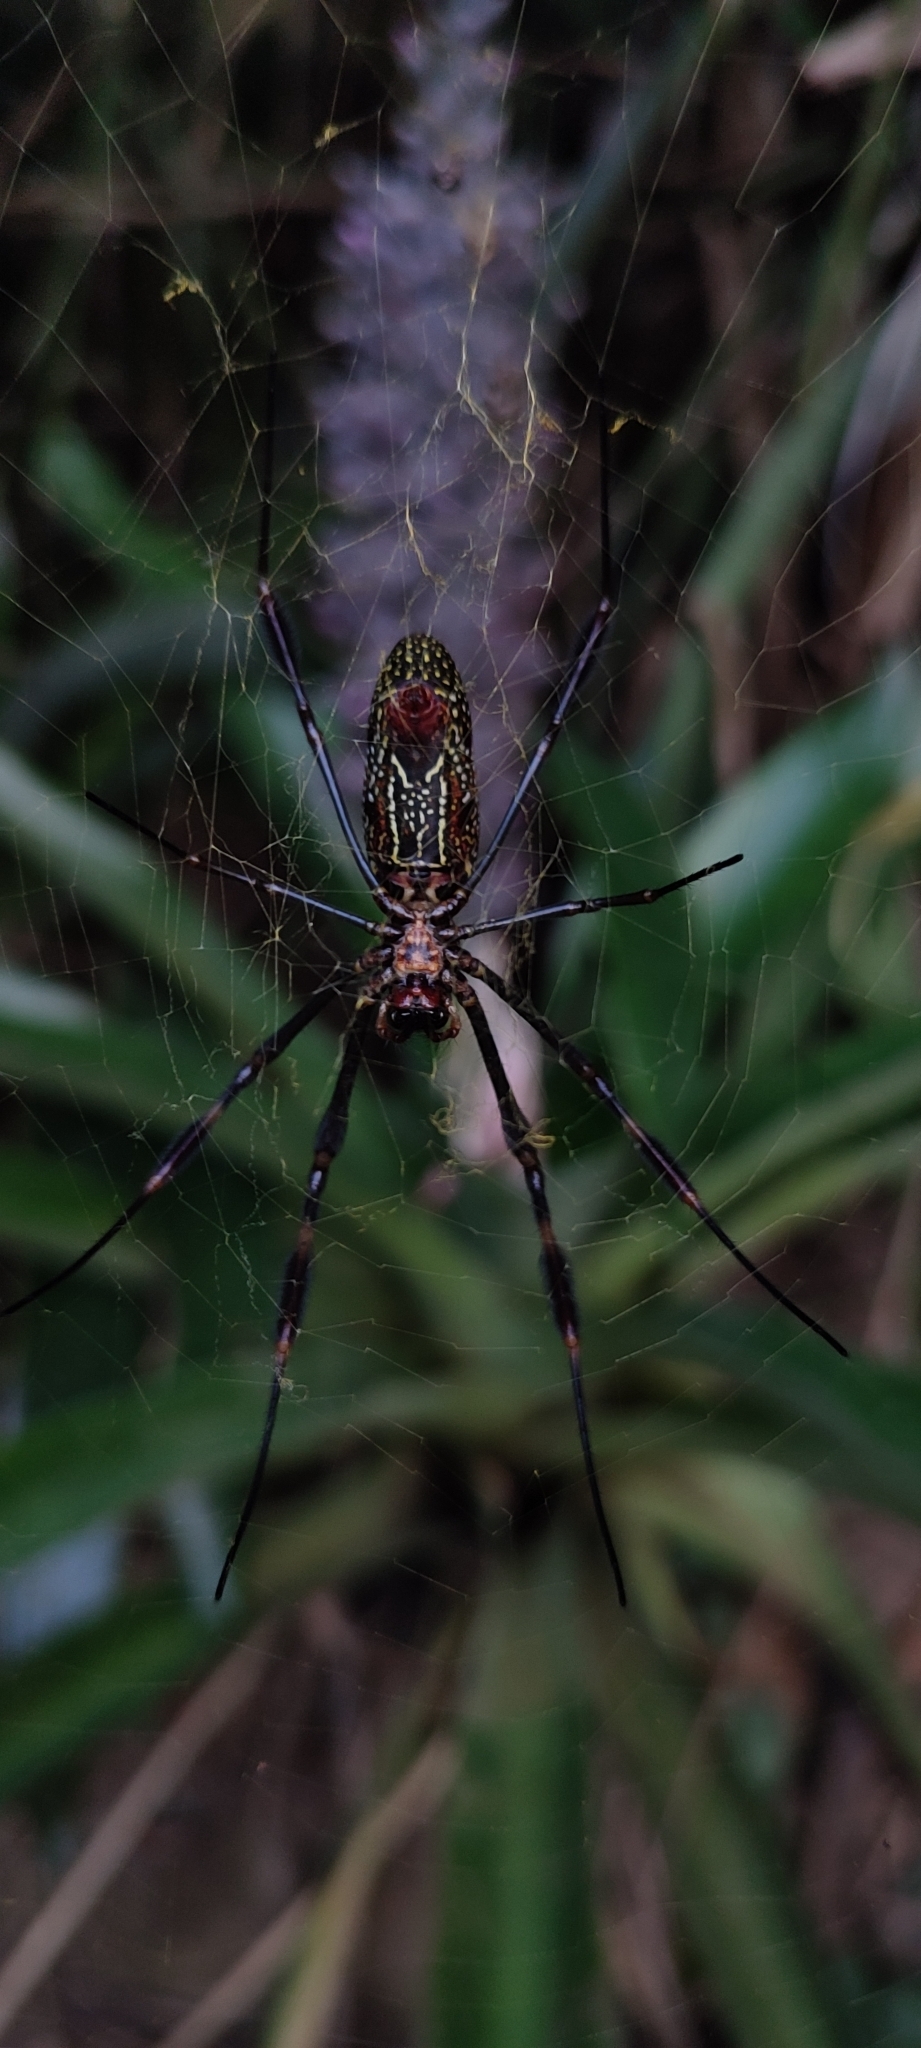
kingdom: Animalia
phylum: Arthropoda
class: Arachnida
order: Araneae
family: Araneidae
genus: Trichonephila
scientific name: Trichonephila clavipes
